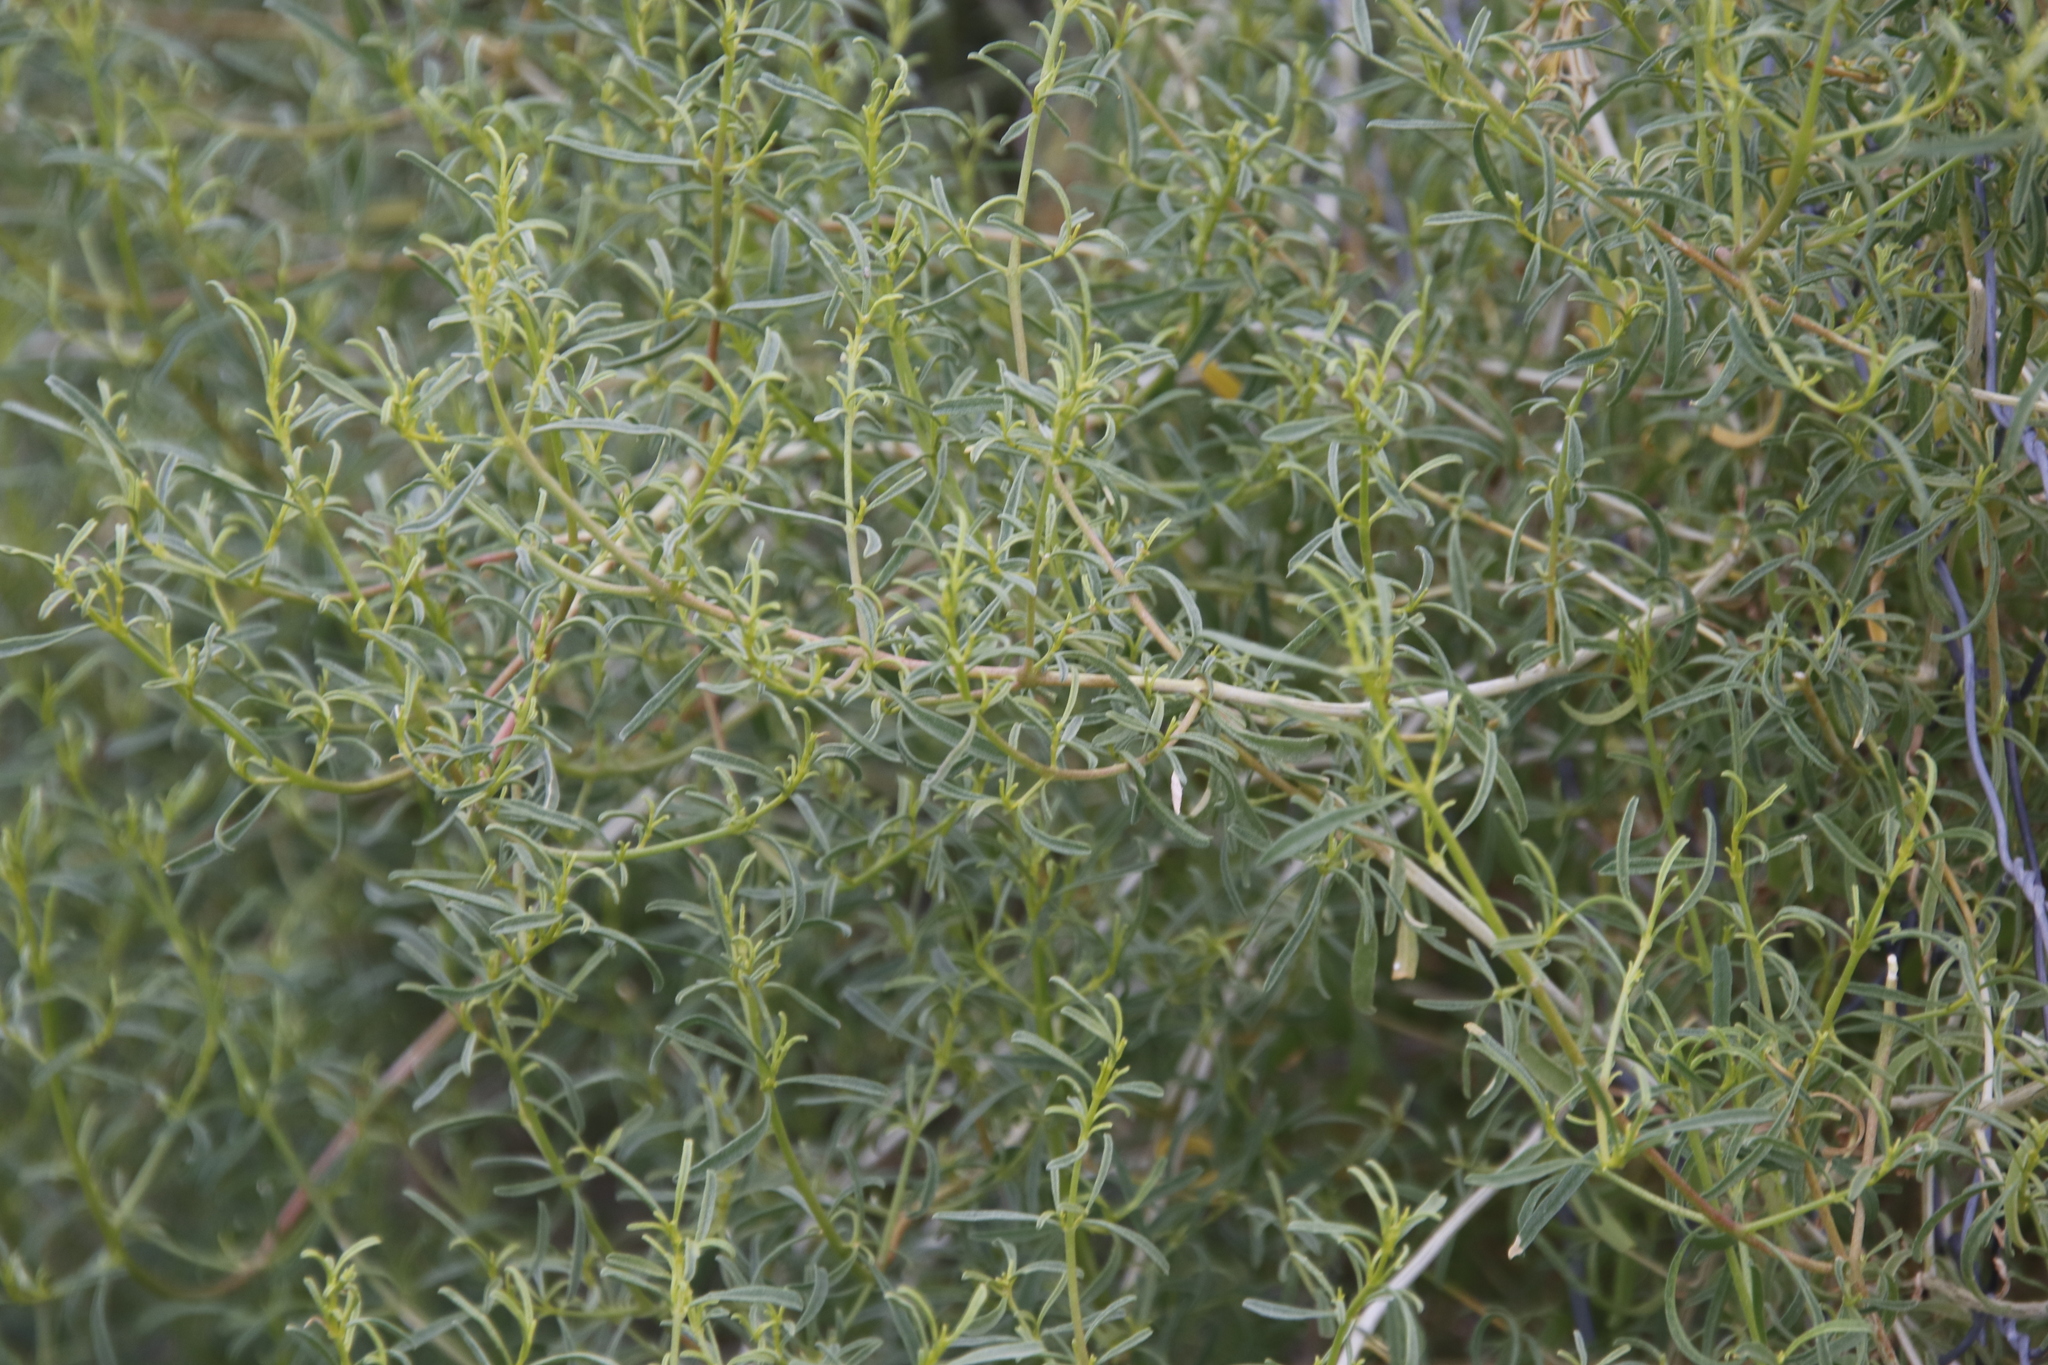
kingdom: Plantae
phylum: Tracheophyta
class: Magnoliopsida
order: Caryophyllales
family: Aizoaceae
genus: Aizoon
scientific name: Aizoon africanum
